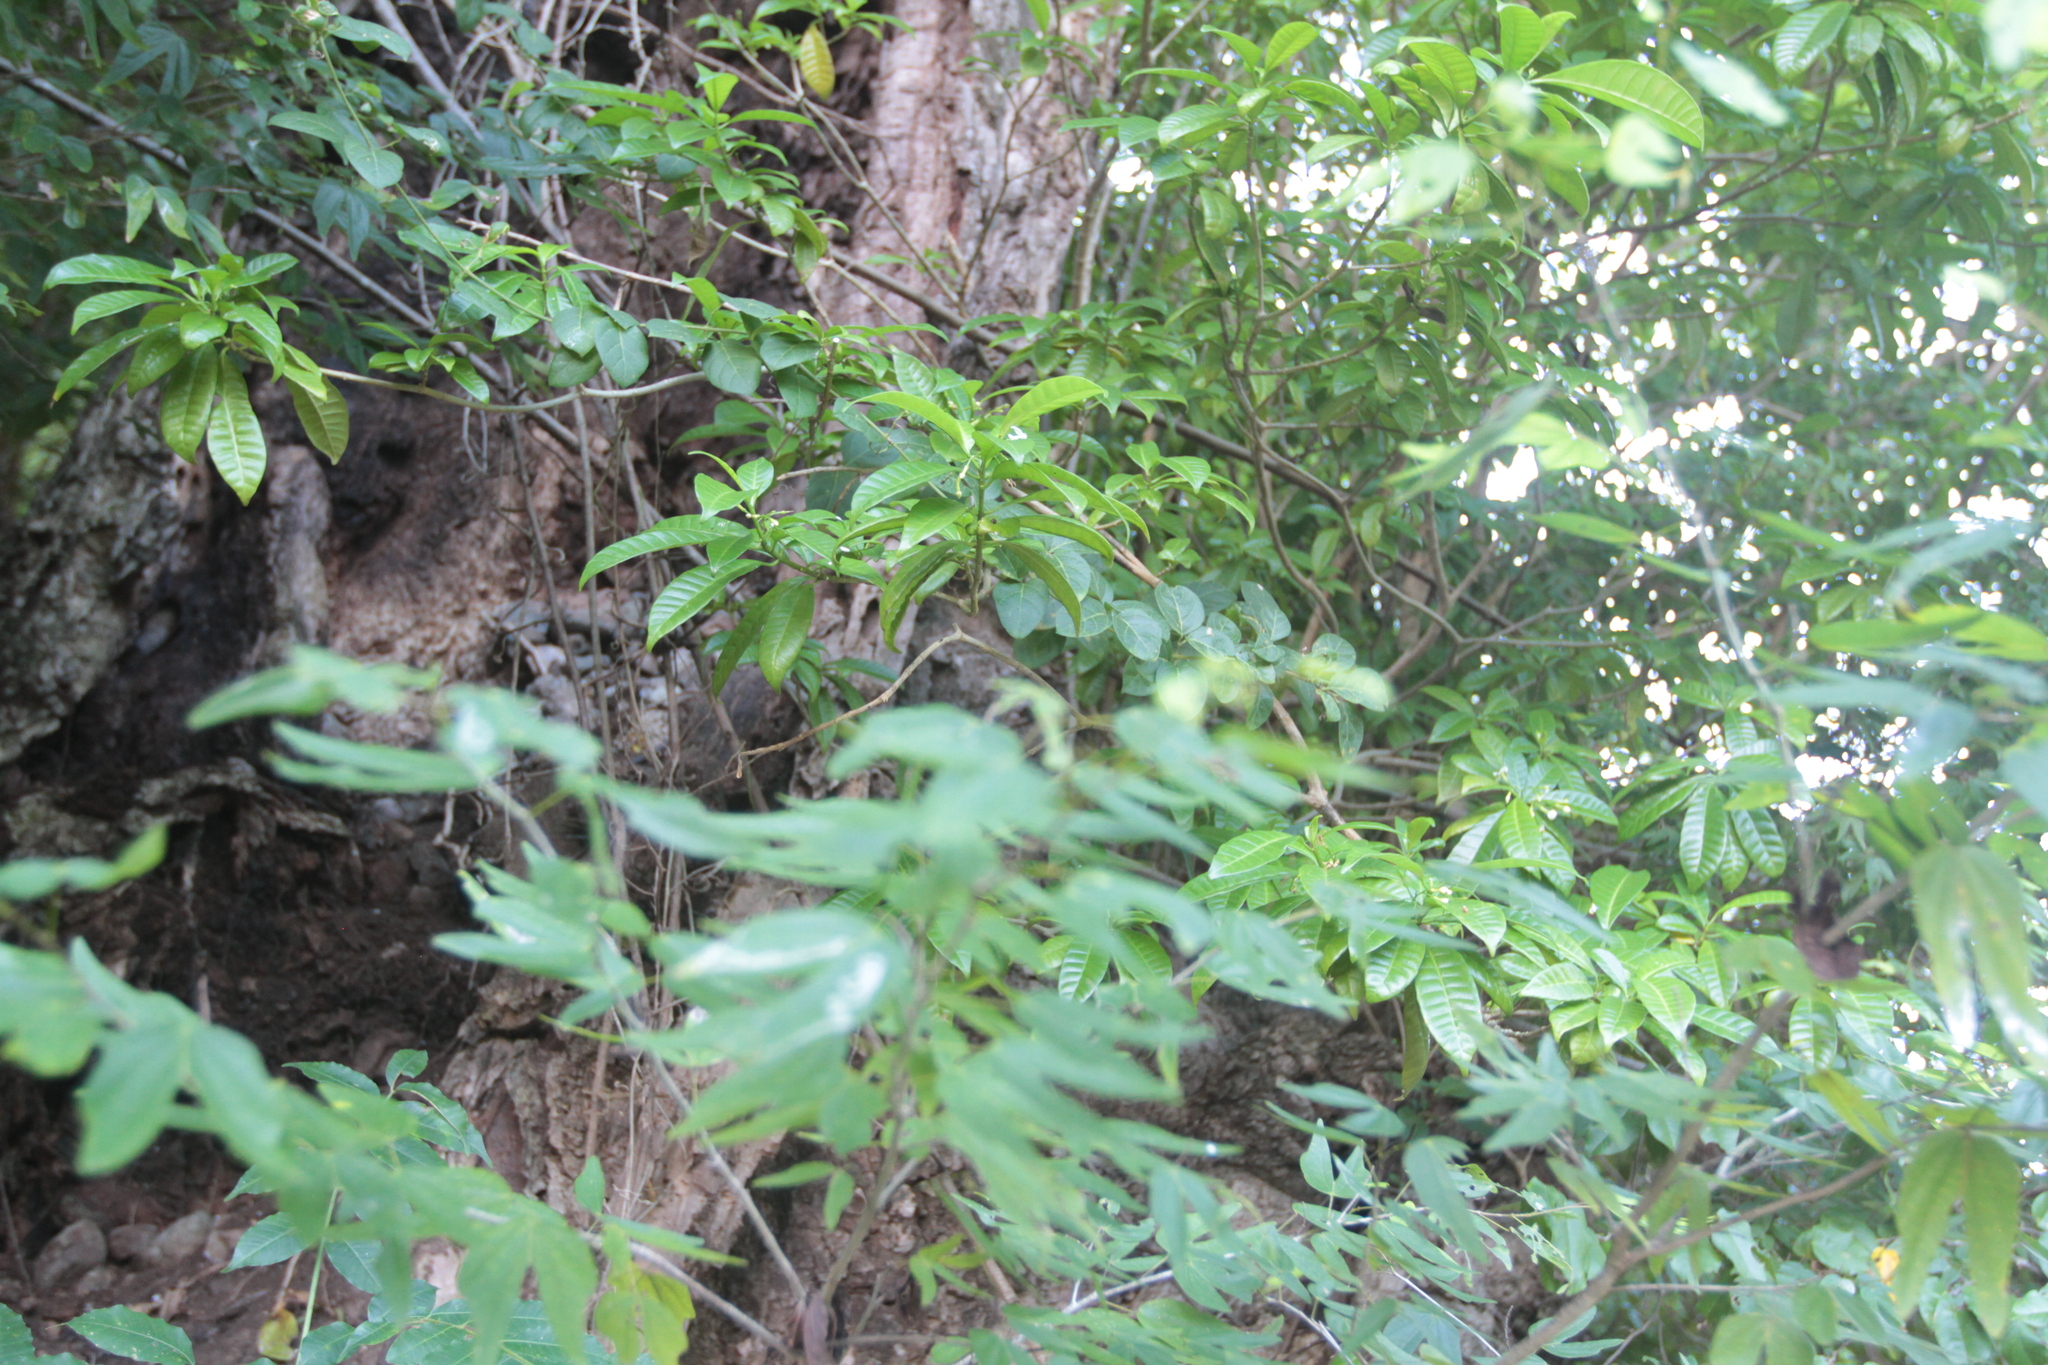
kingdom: Plantae
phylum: Tracheophyta
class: Magnoliopsida
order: Gentianales
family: Apocynaceae
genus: Tabernaemontana
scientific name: Tabernaemontana citrifolia
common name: Milky tree
